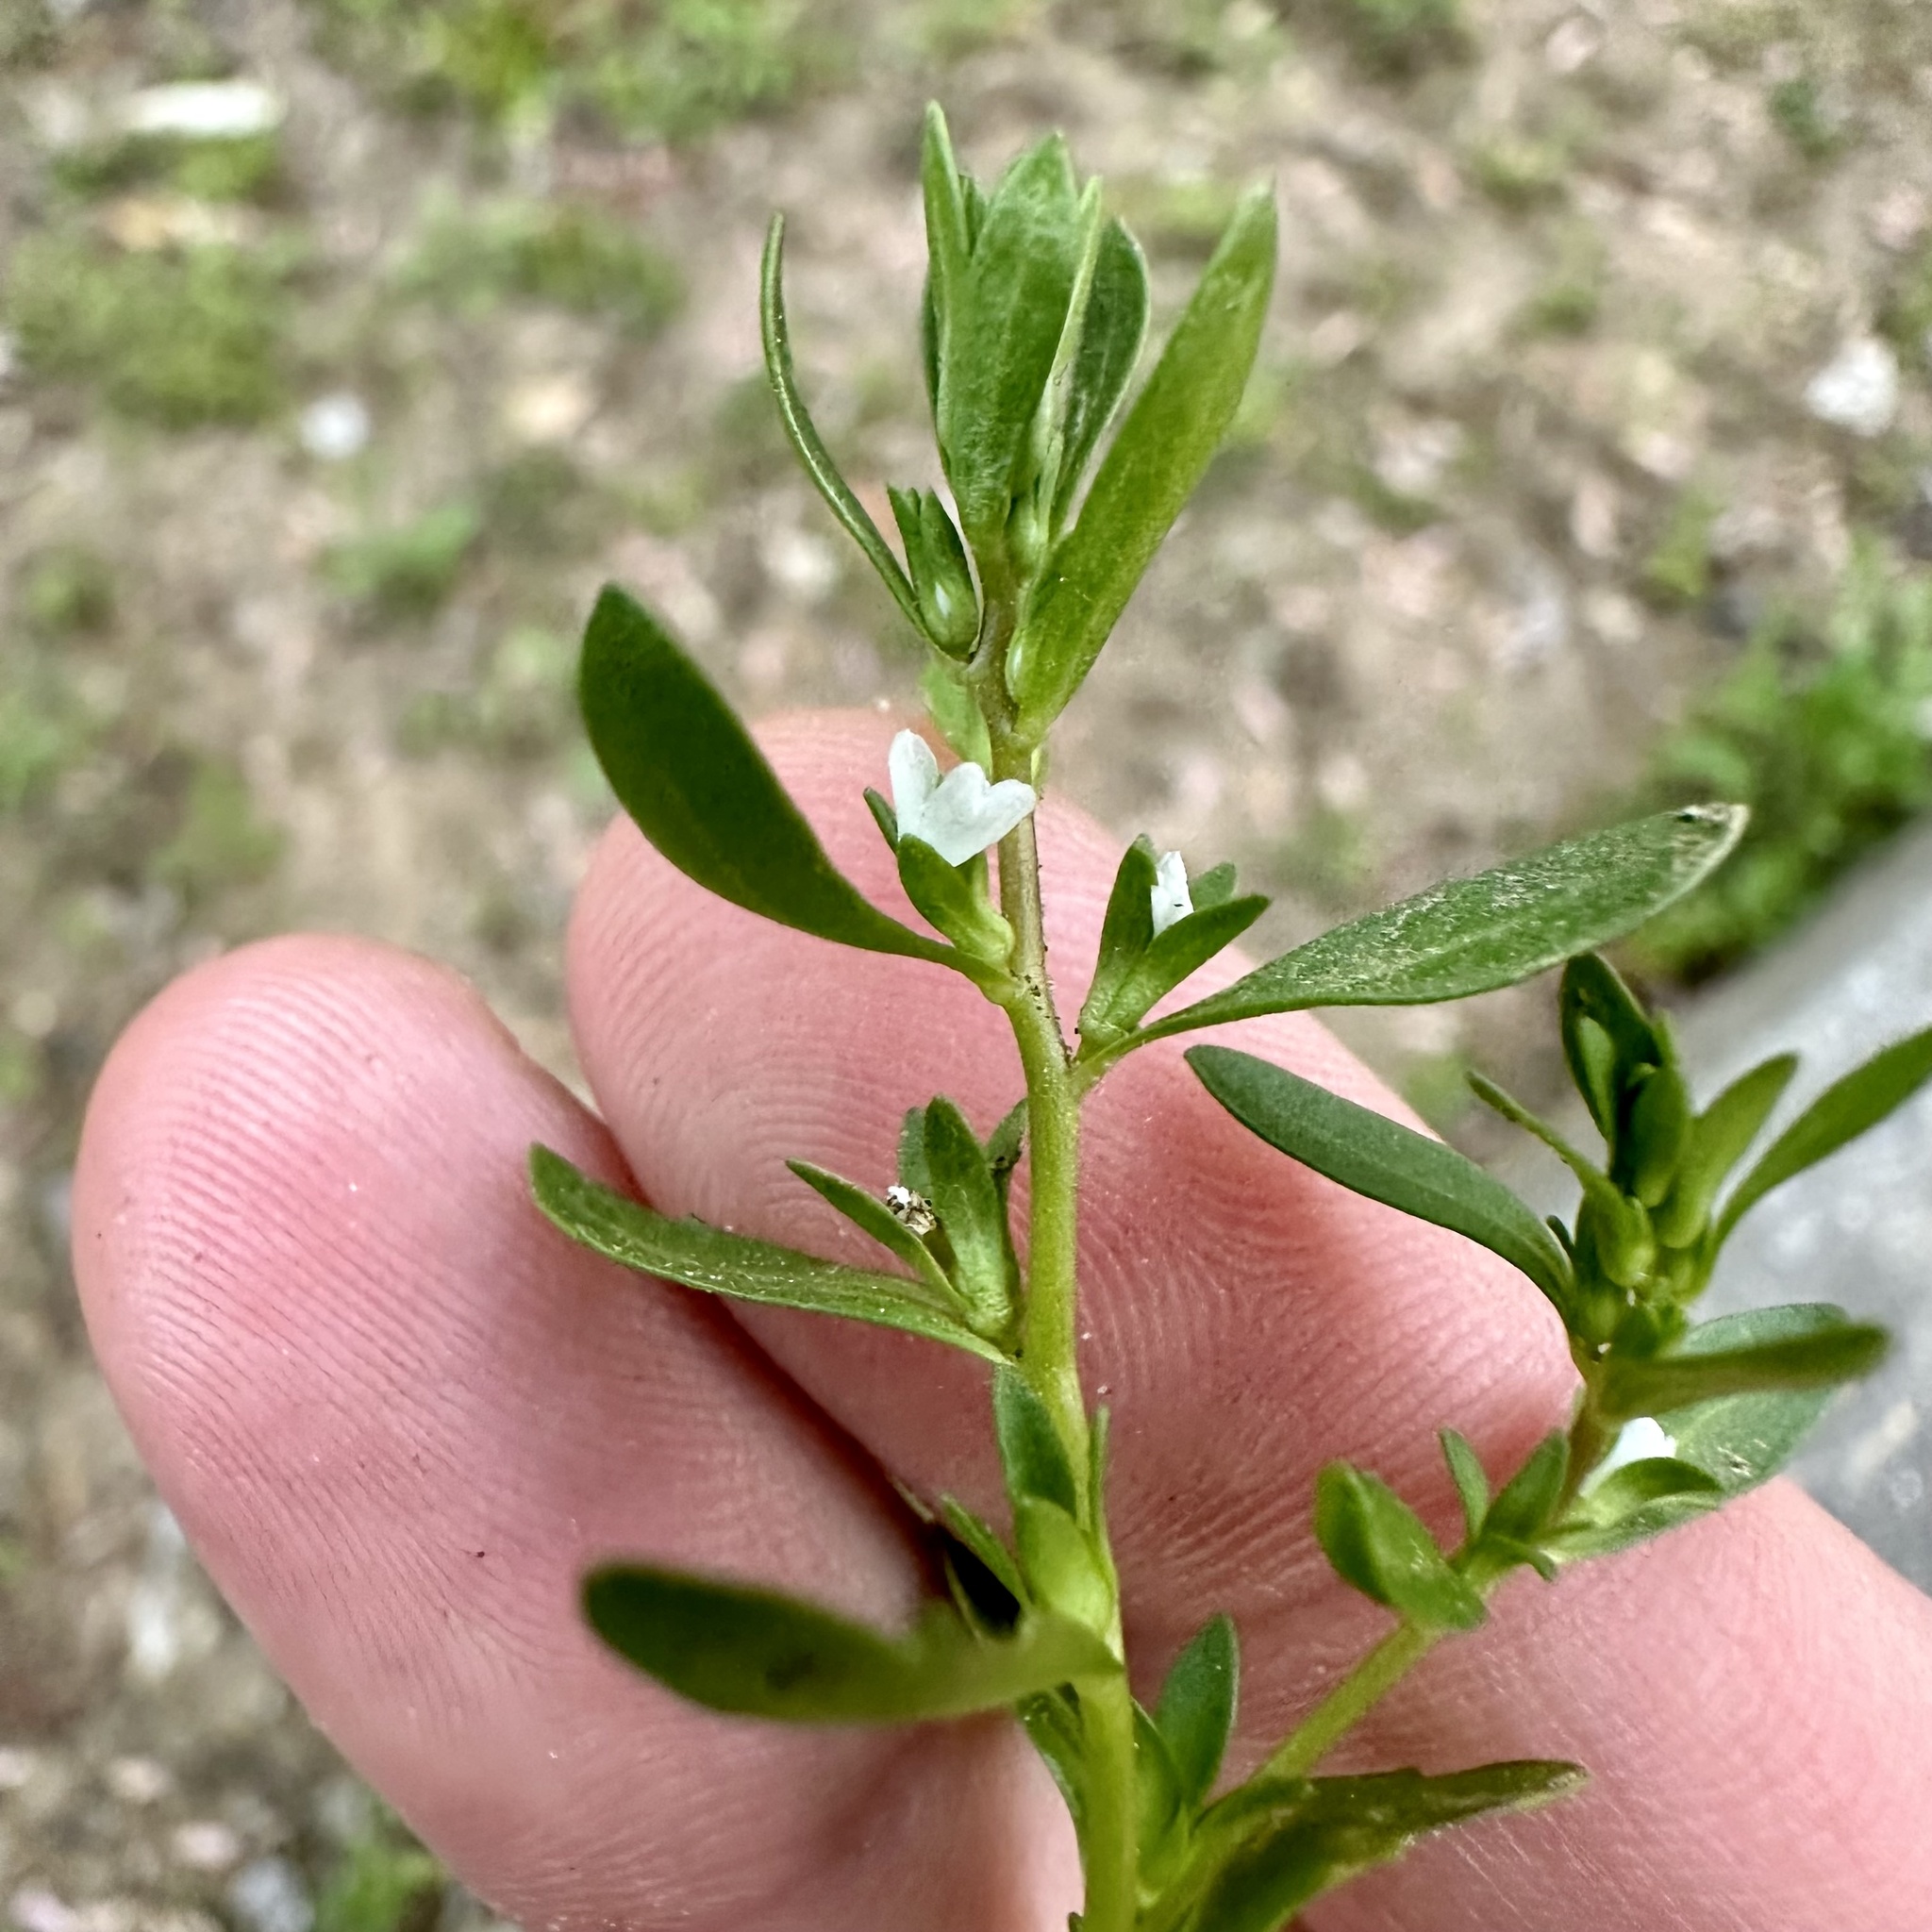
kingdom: Plantae
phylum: Tracheophyta
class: Magnoliopsida
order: Lamiales
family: Plantaginaceae
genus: Veronica
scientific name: Veronica peregrina
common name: Neckweed
